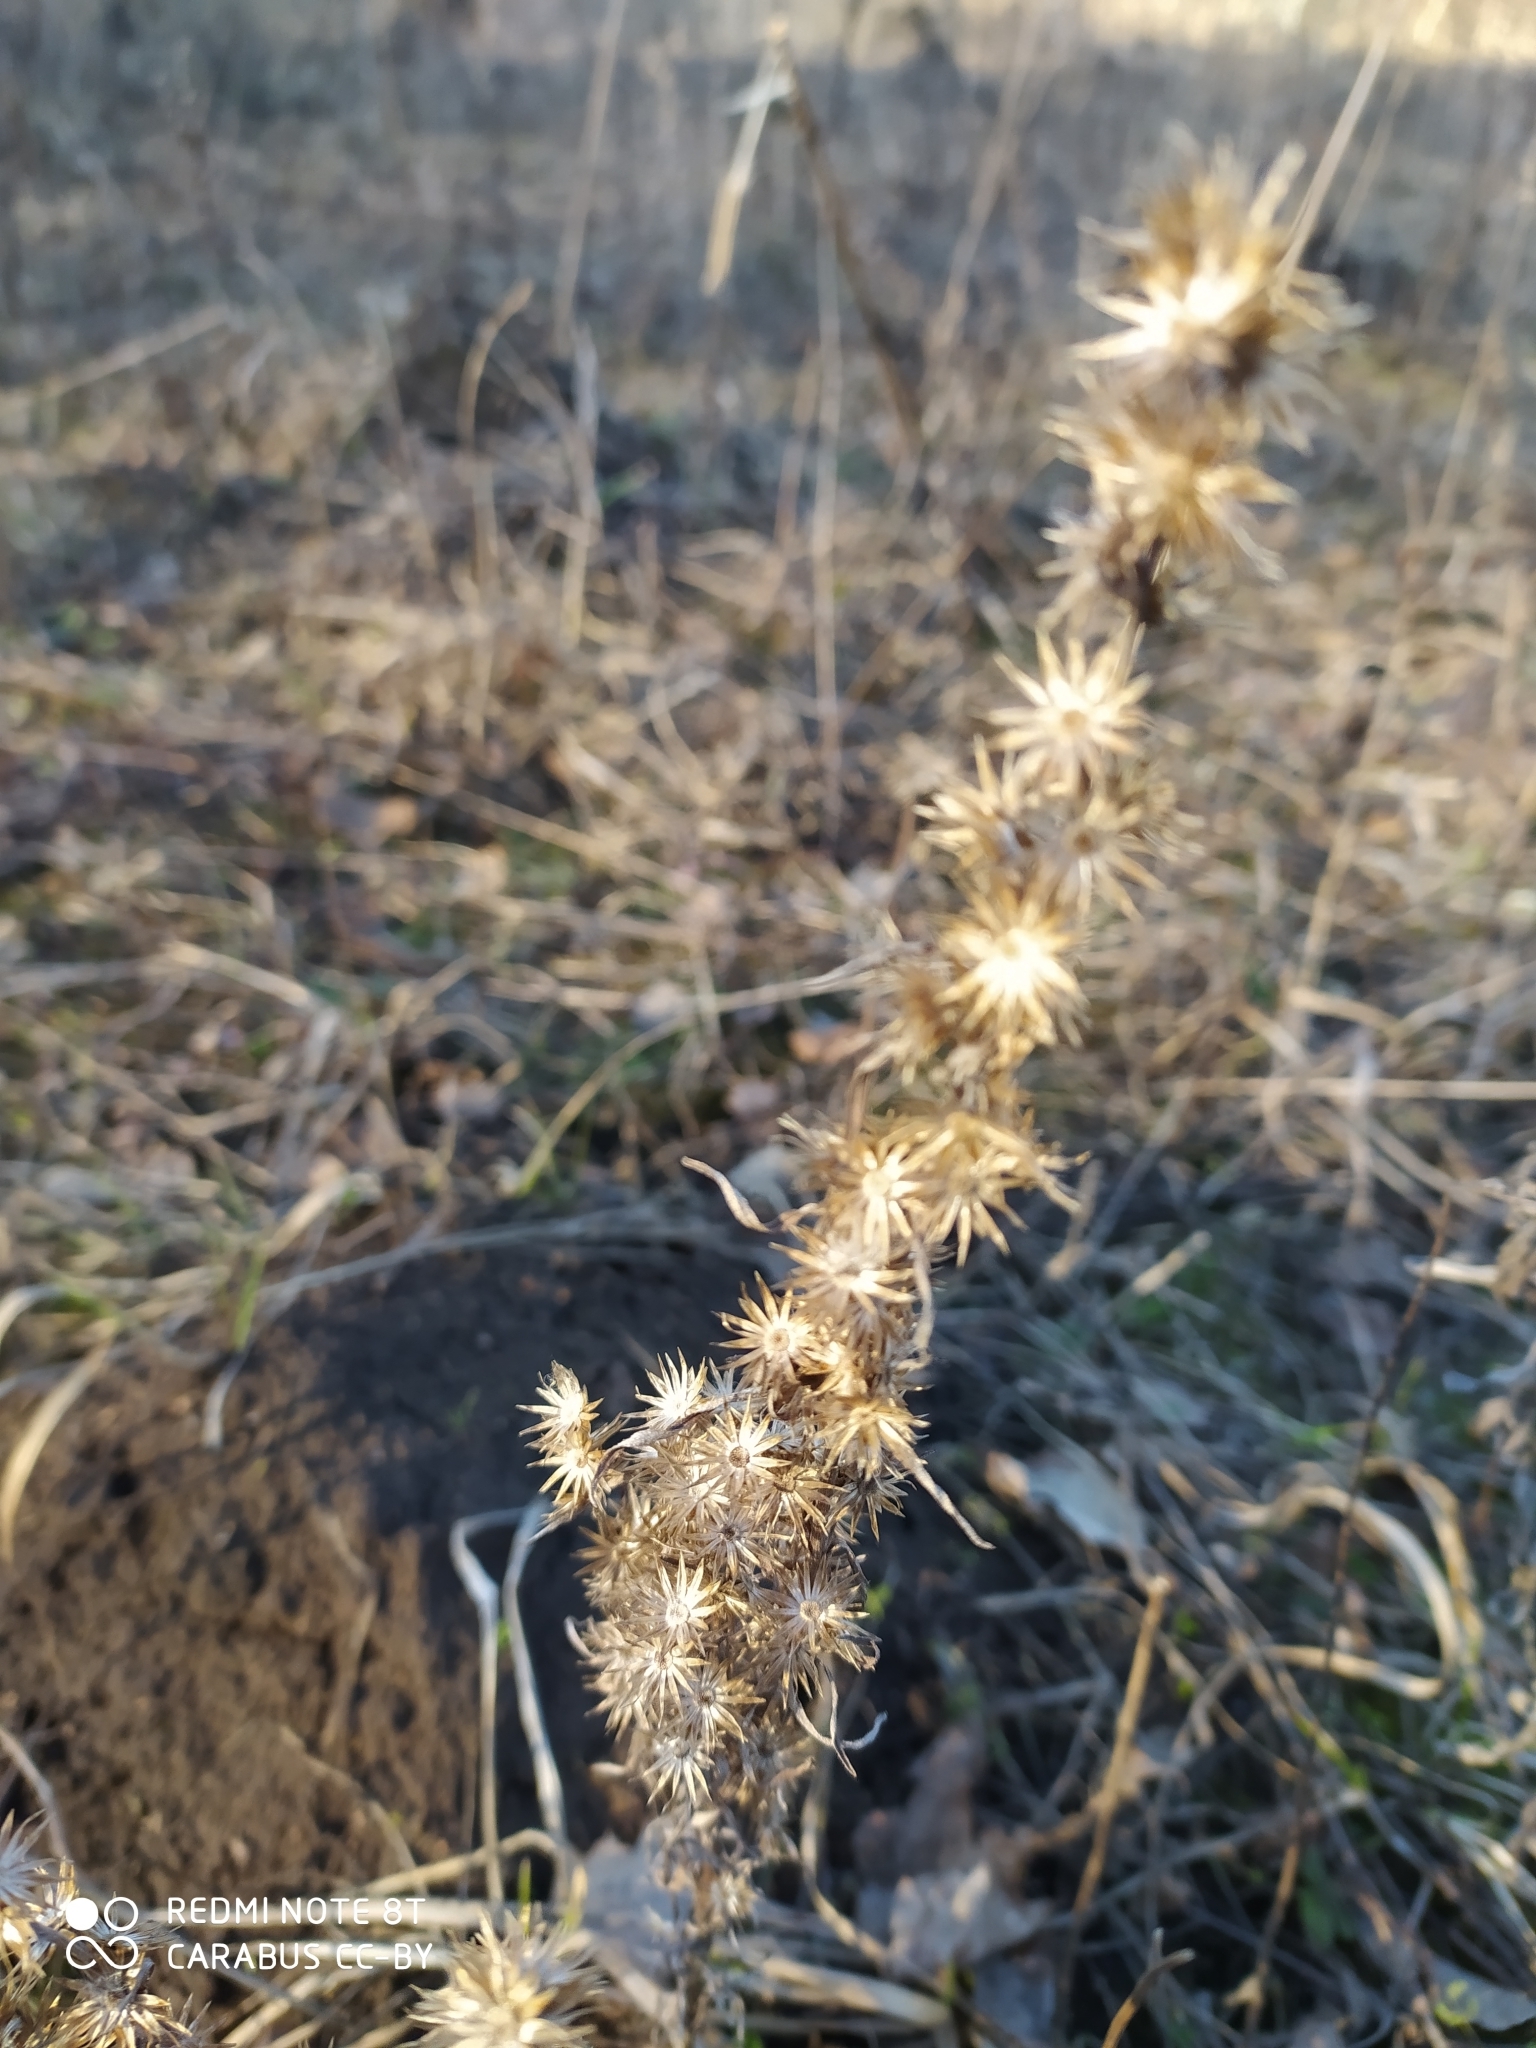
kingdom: Plantae
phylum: Tracheophyta
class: Magnoliopsida
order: Asterales
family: Asteraceae
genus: Omalotheca
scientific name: Omalotheca sylvatica
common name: Heath cudweed
